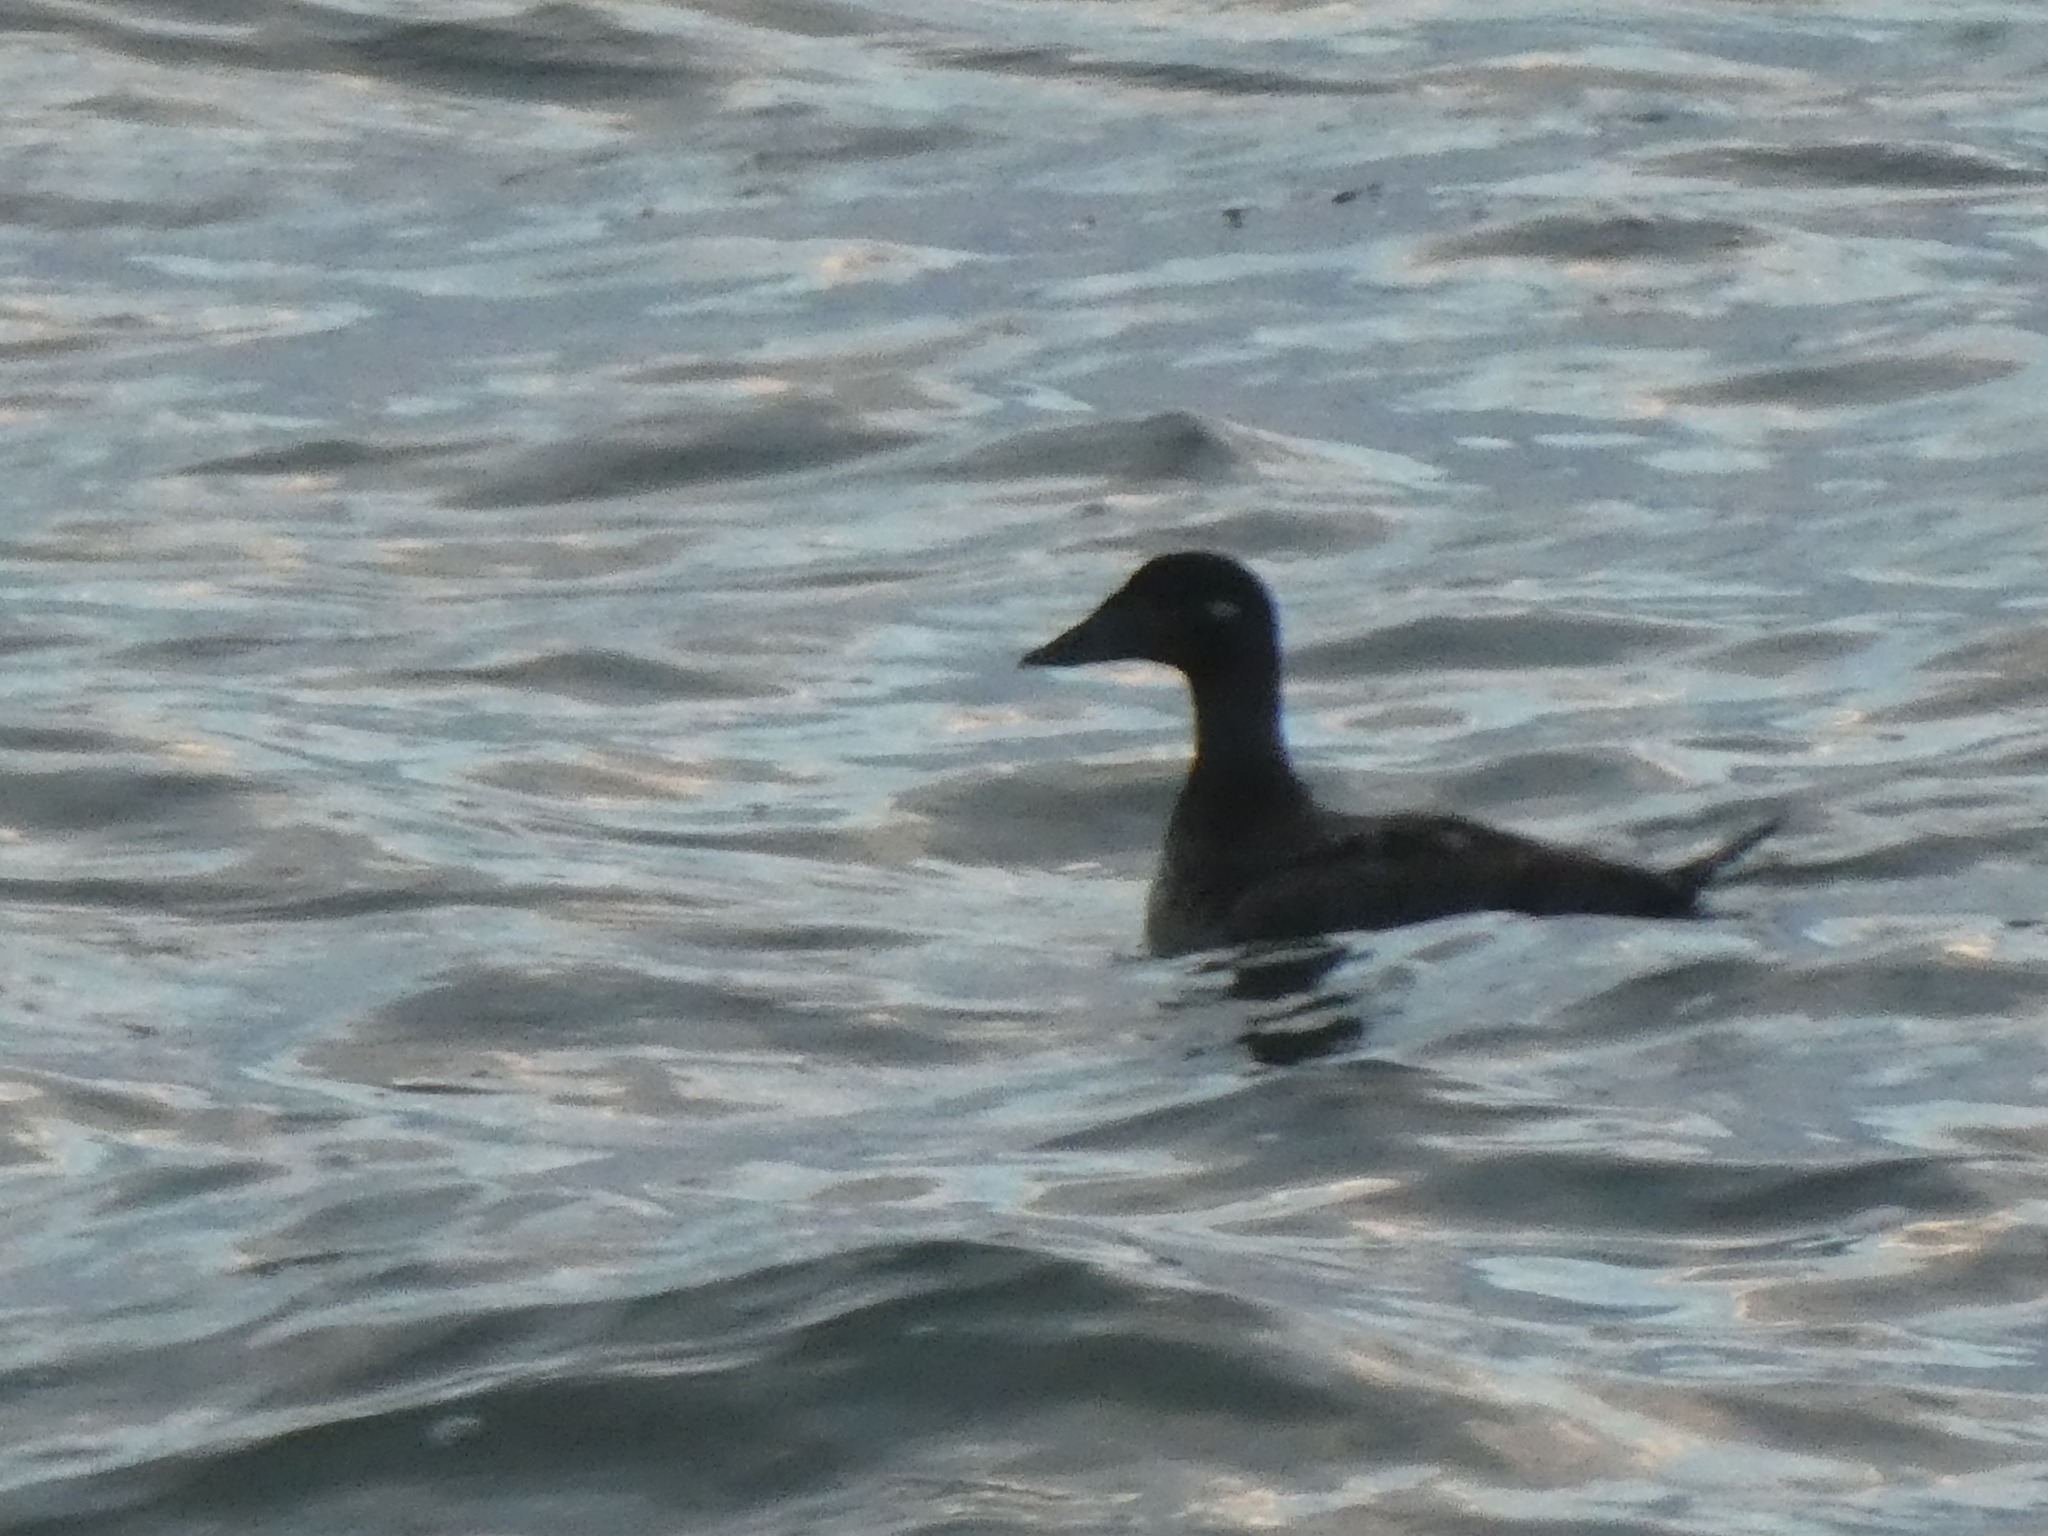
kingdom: Animalia
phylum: Chordata
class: Aves
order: Anseriformes
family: Anatidae
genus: Melanitta
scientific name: Melanitta deglandi
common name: White-winged scoter
